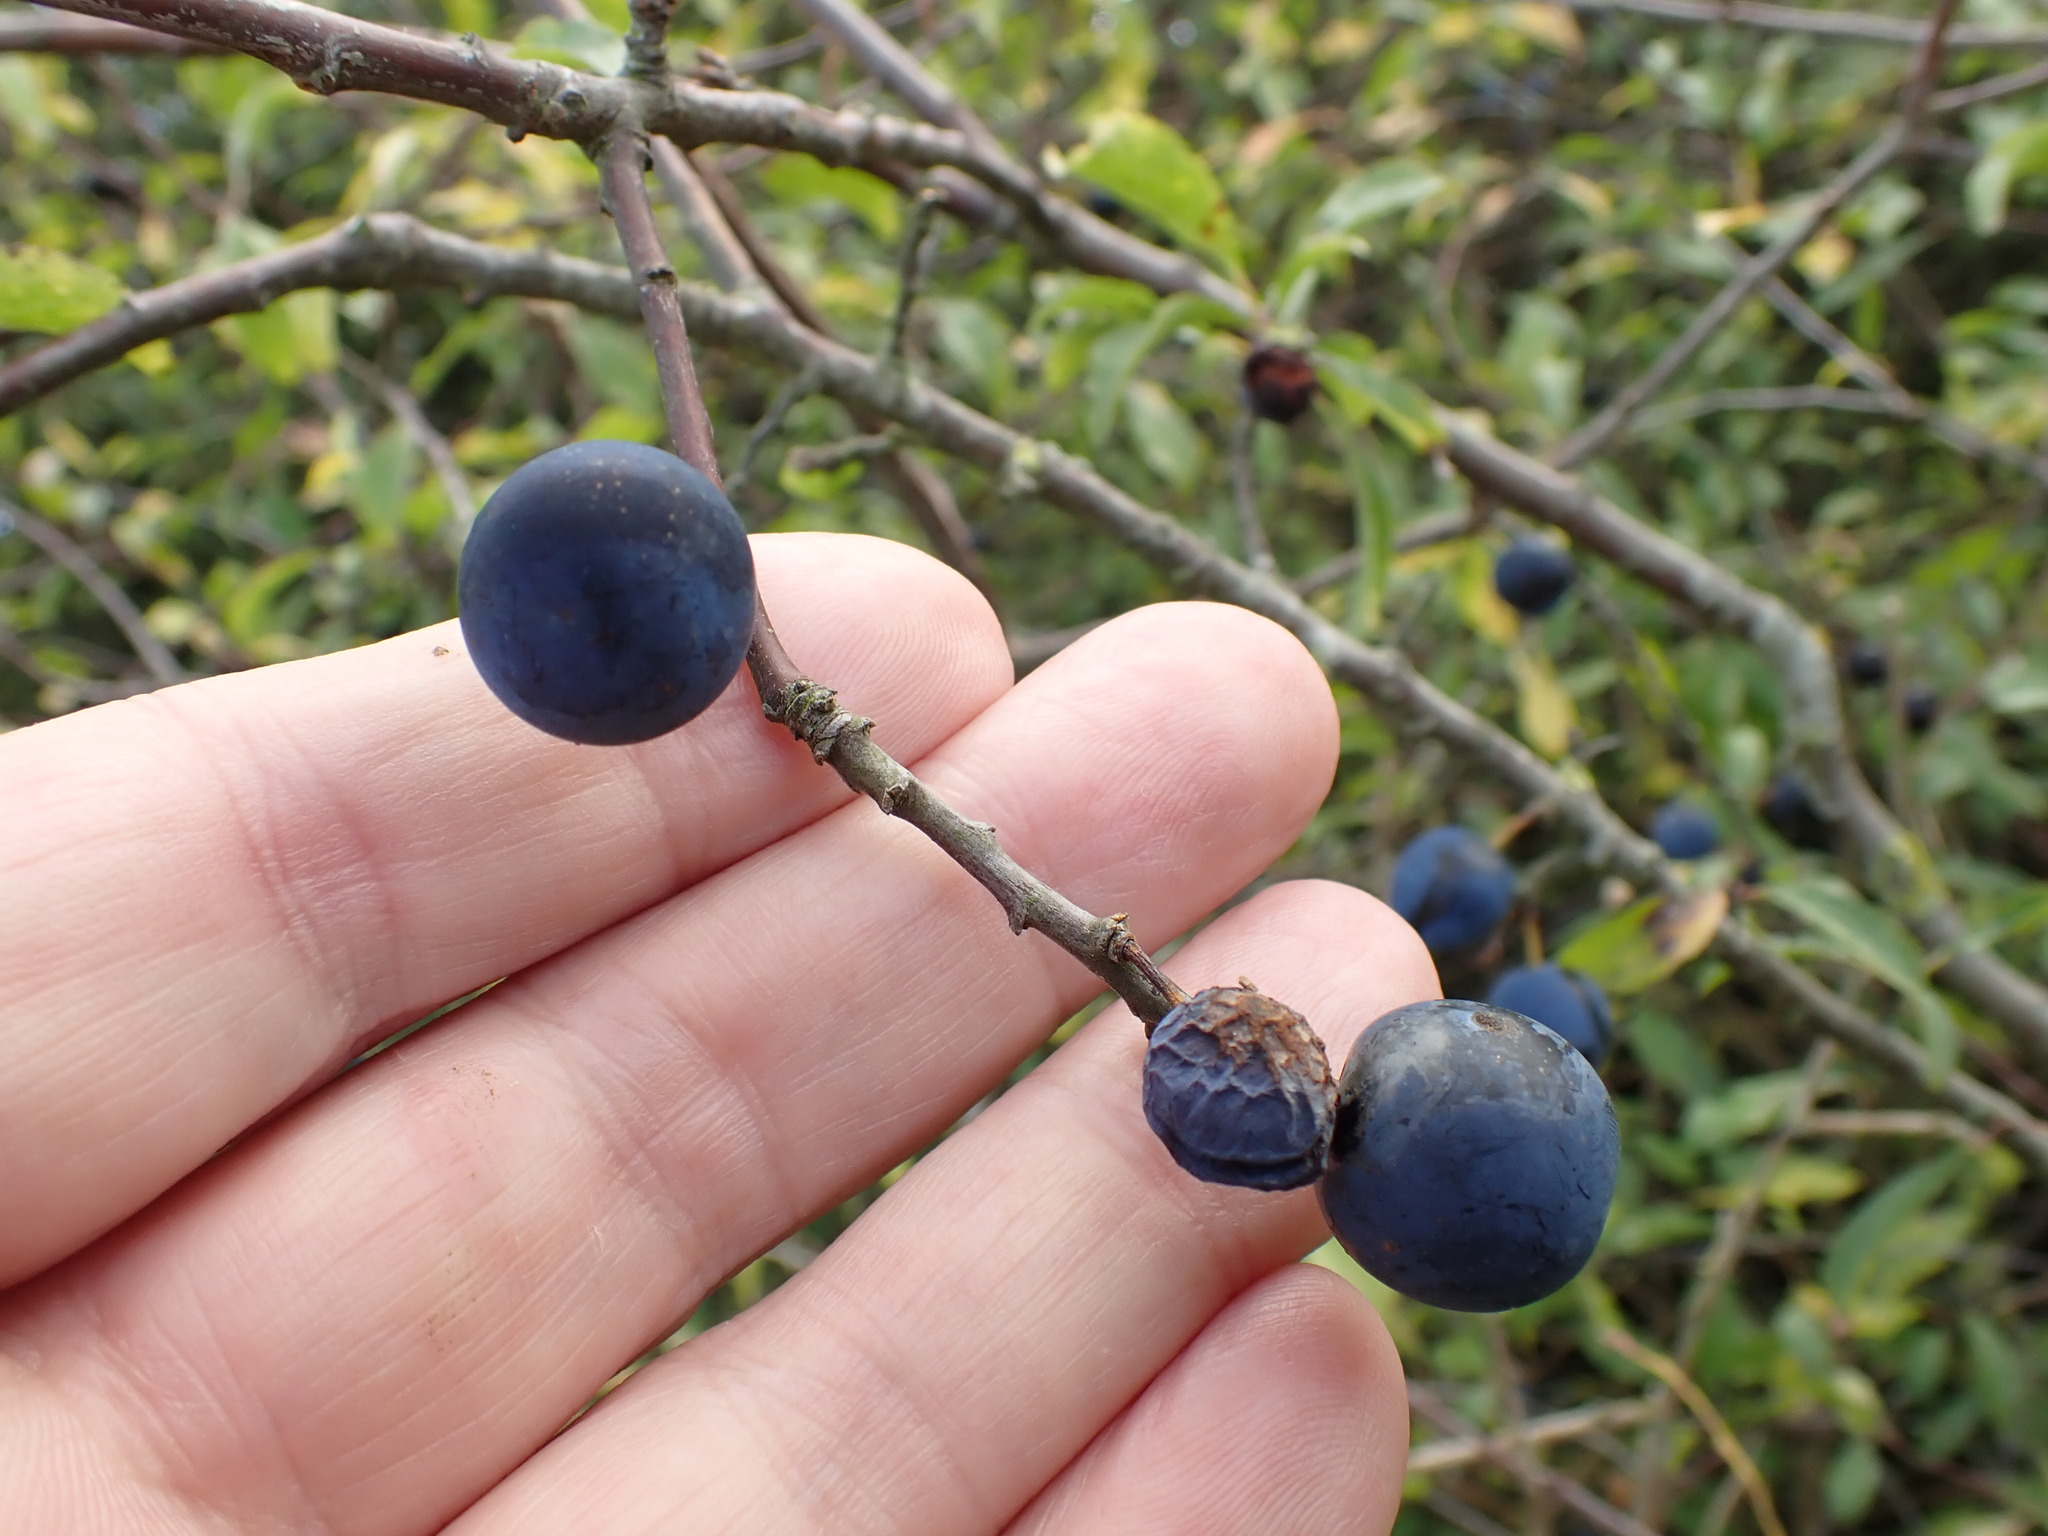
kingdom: Plantae
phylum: Tracheophyta
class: Magnoliopsida
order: Rosales
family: Rosaceae
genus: Prunus
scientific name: Prunus spinosa
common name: Blackthorn
